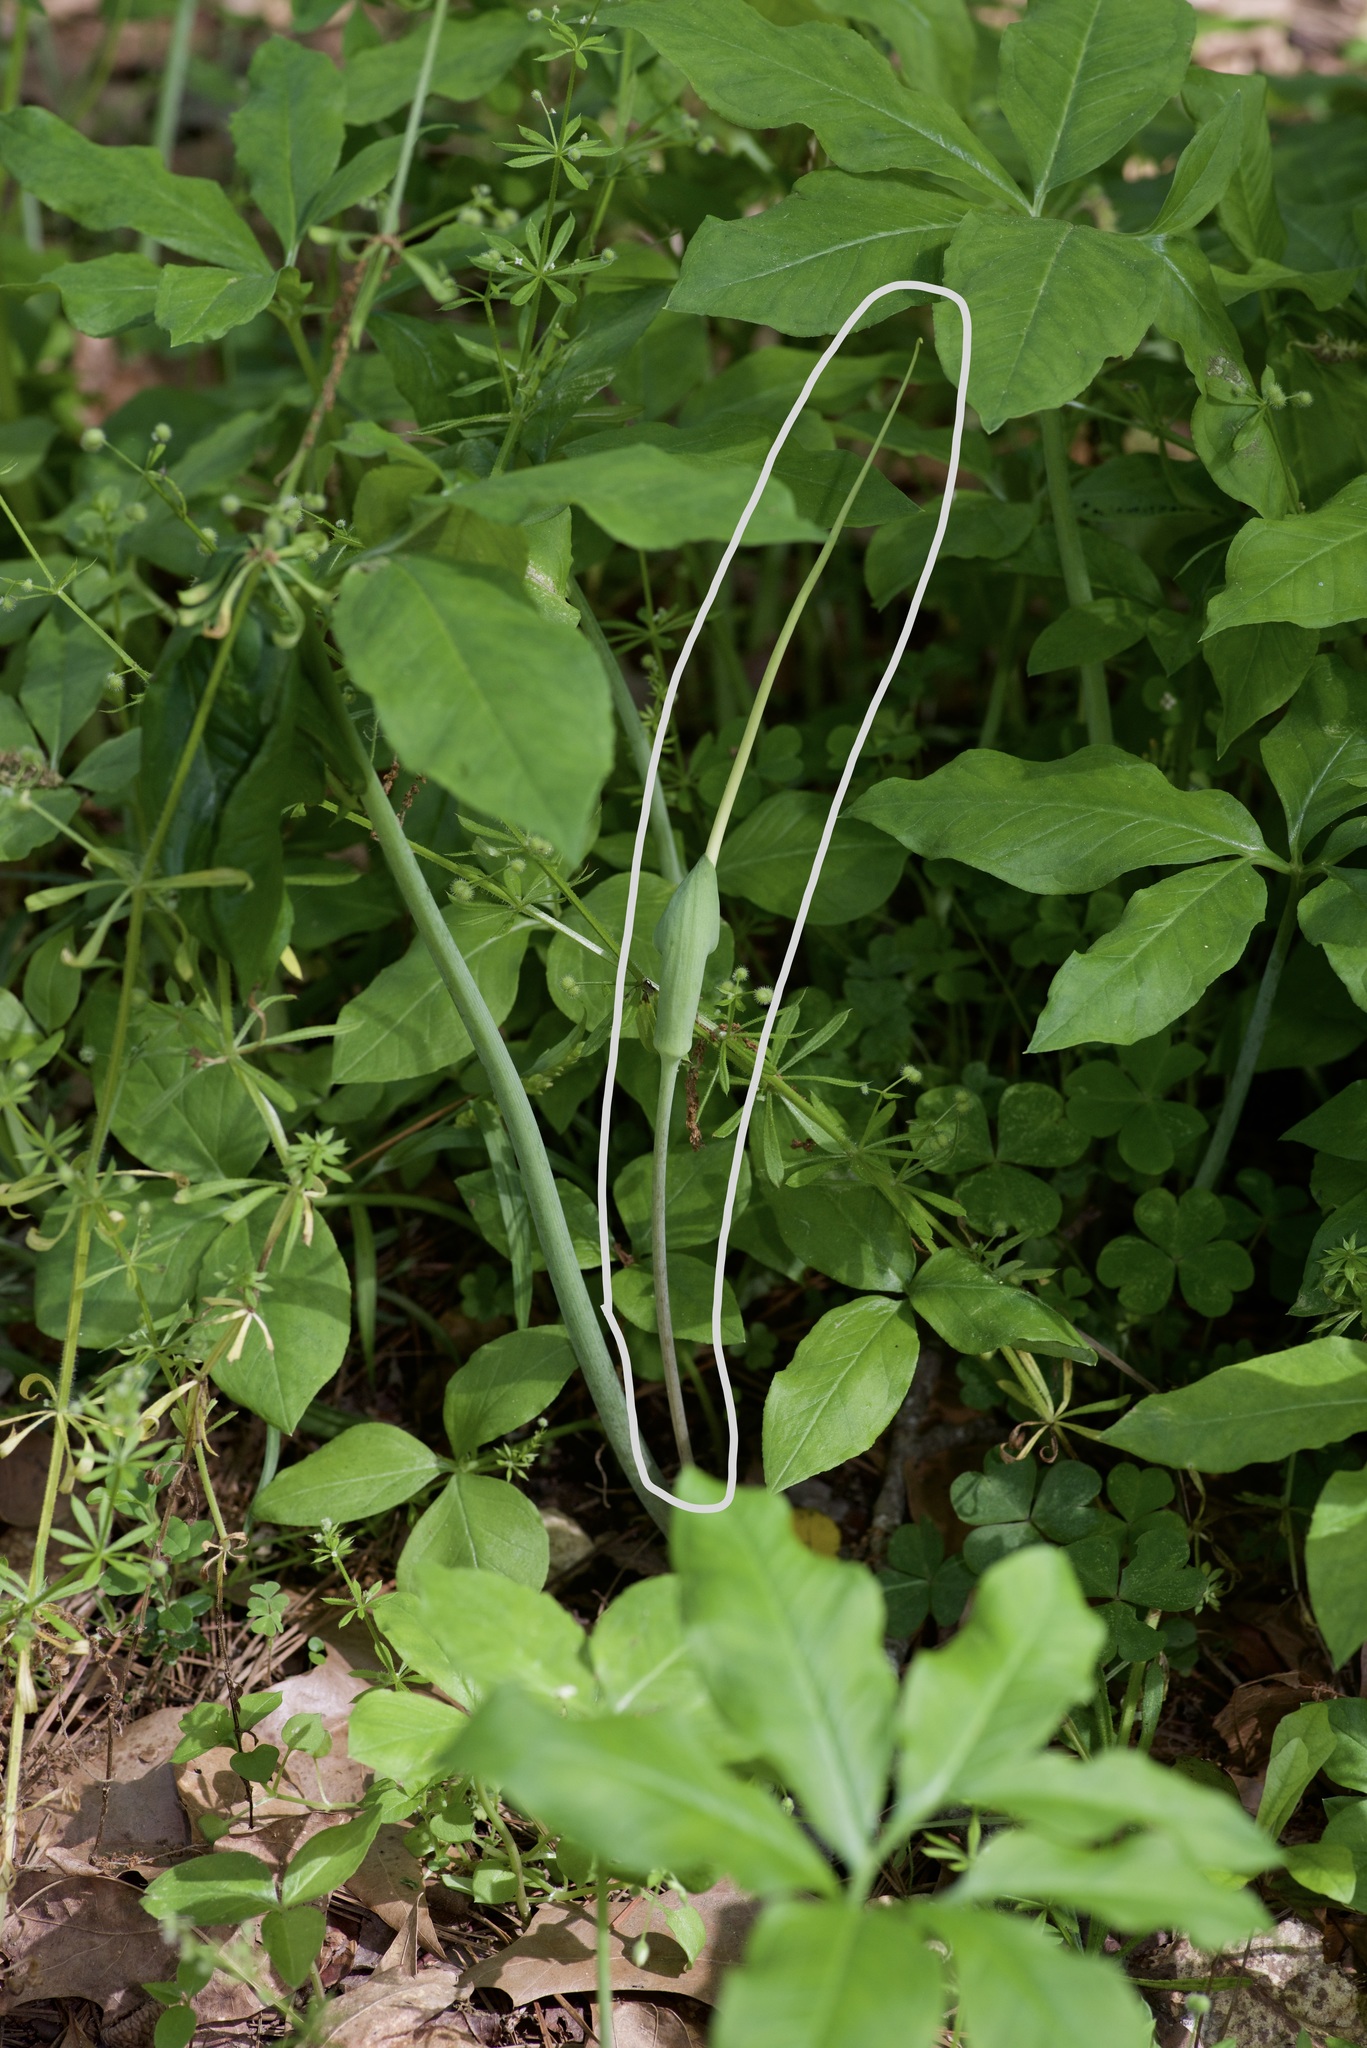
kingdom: Plantae
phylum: Tracheophyta
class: Liliopsida
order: Alismatales
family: Araceae
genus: Arisaema
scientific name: Arisaema dracontium
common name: Dragon-arum
